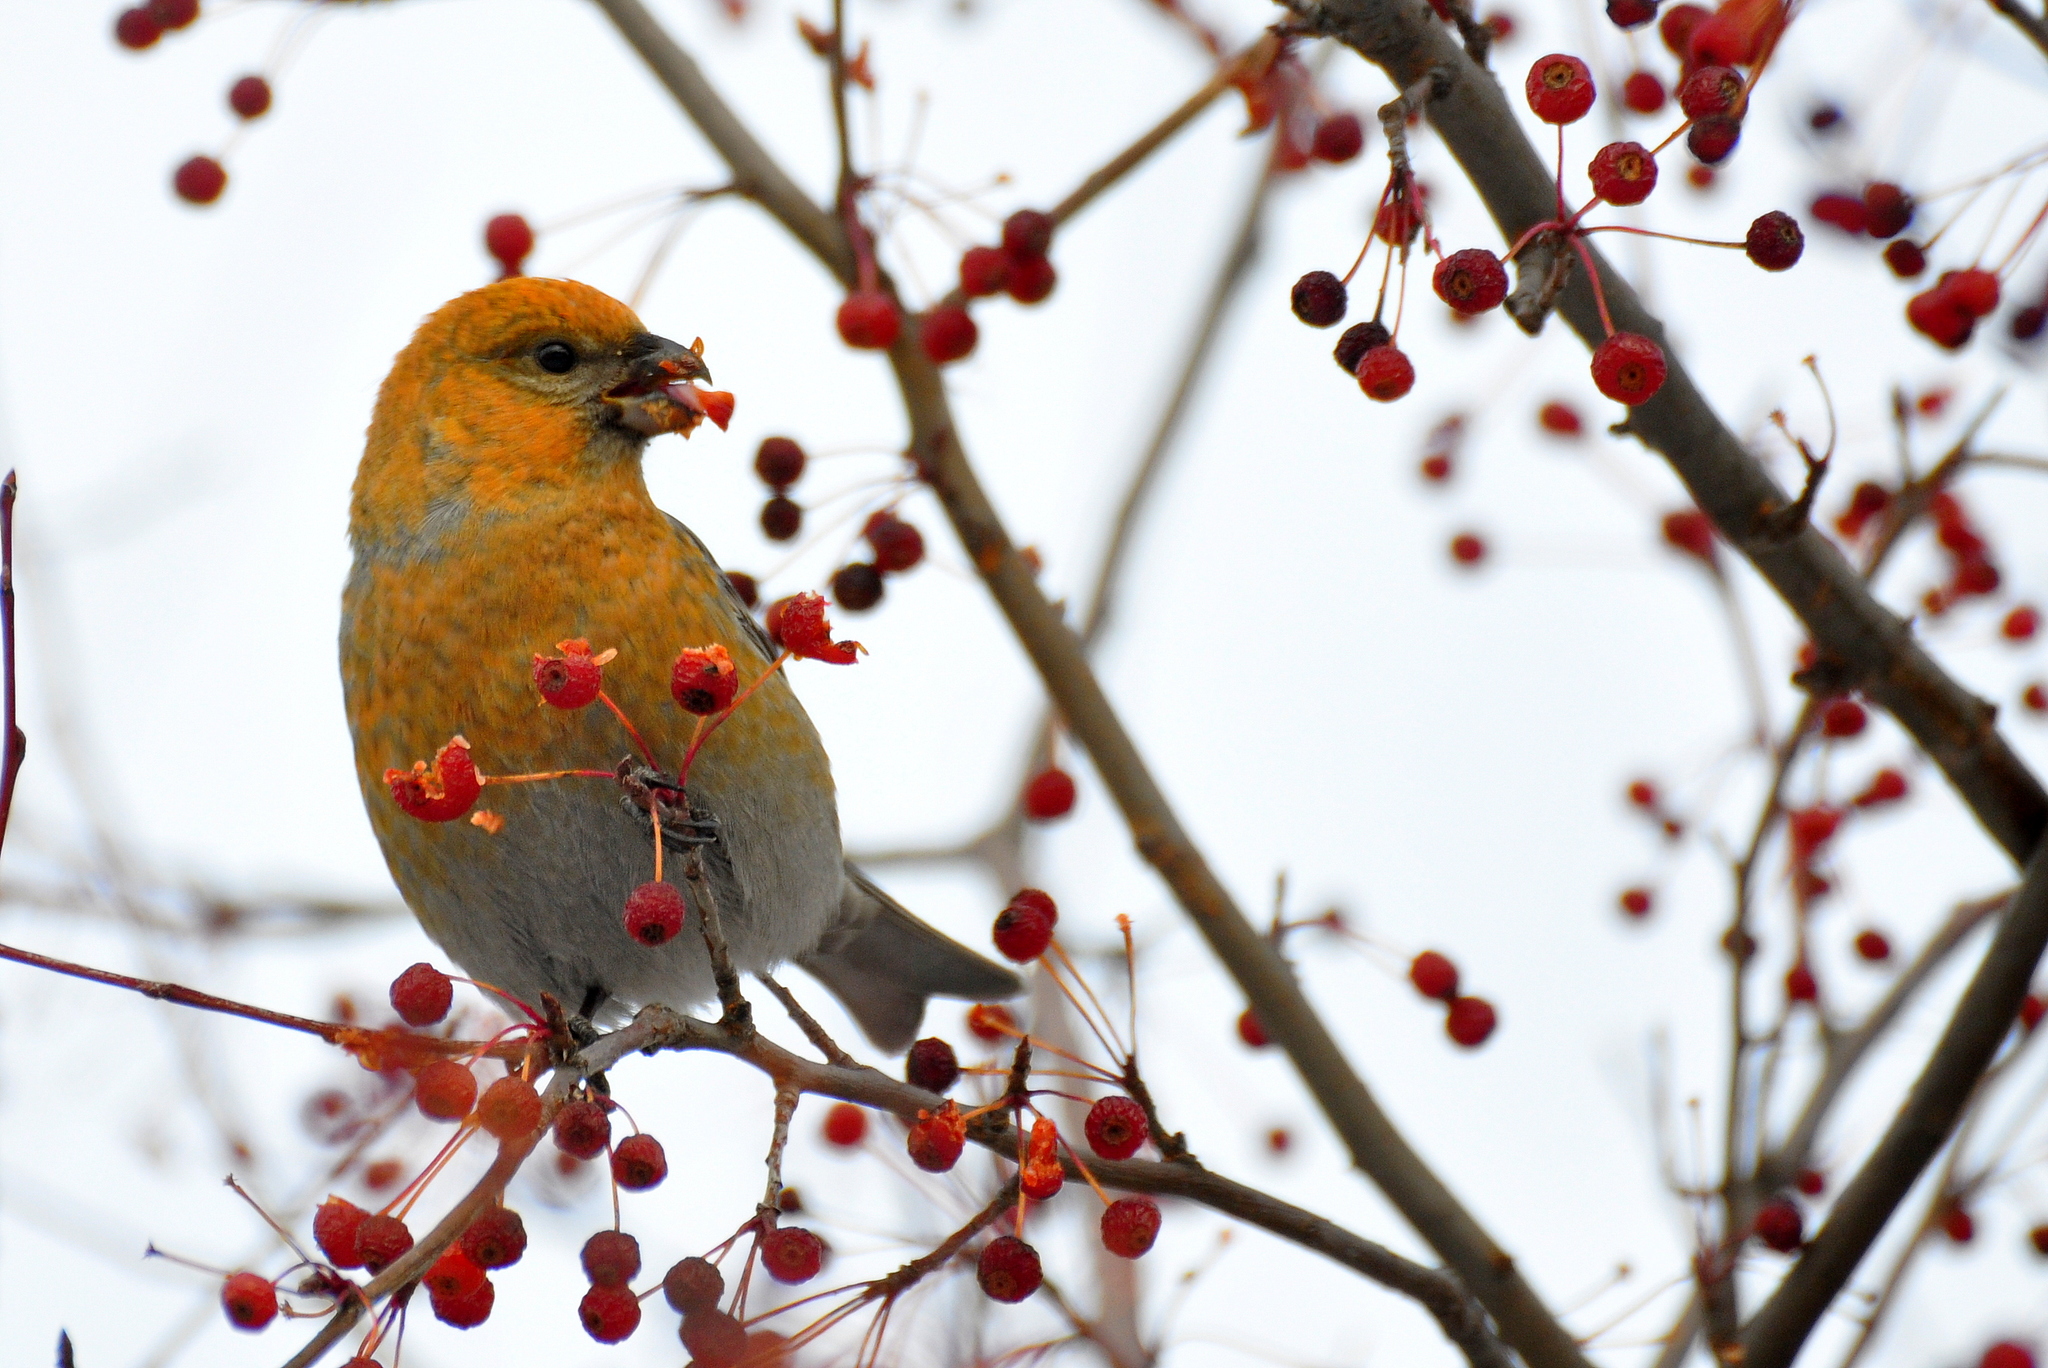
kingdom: Animalia
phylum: Chordata
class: Aves
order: Passeriformes
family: Fringillidae
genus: Pinicola
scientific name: Pinicola enucleator
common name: Pine grosbeak
